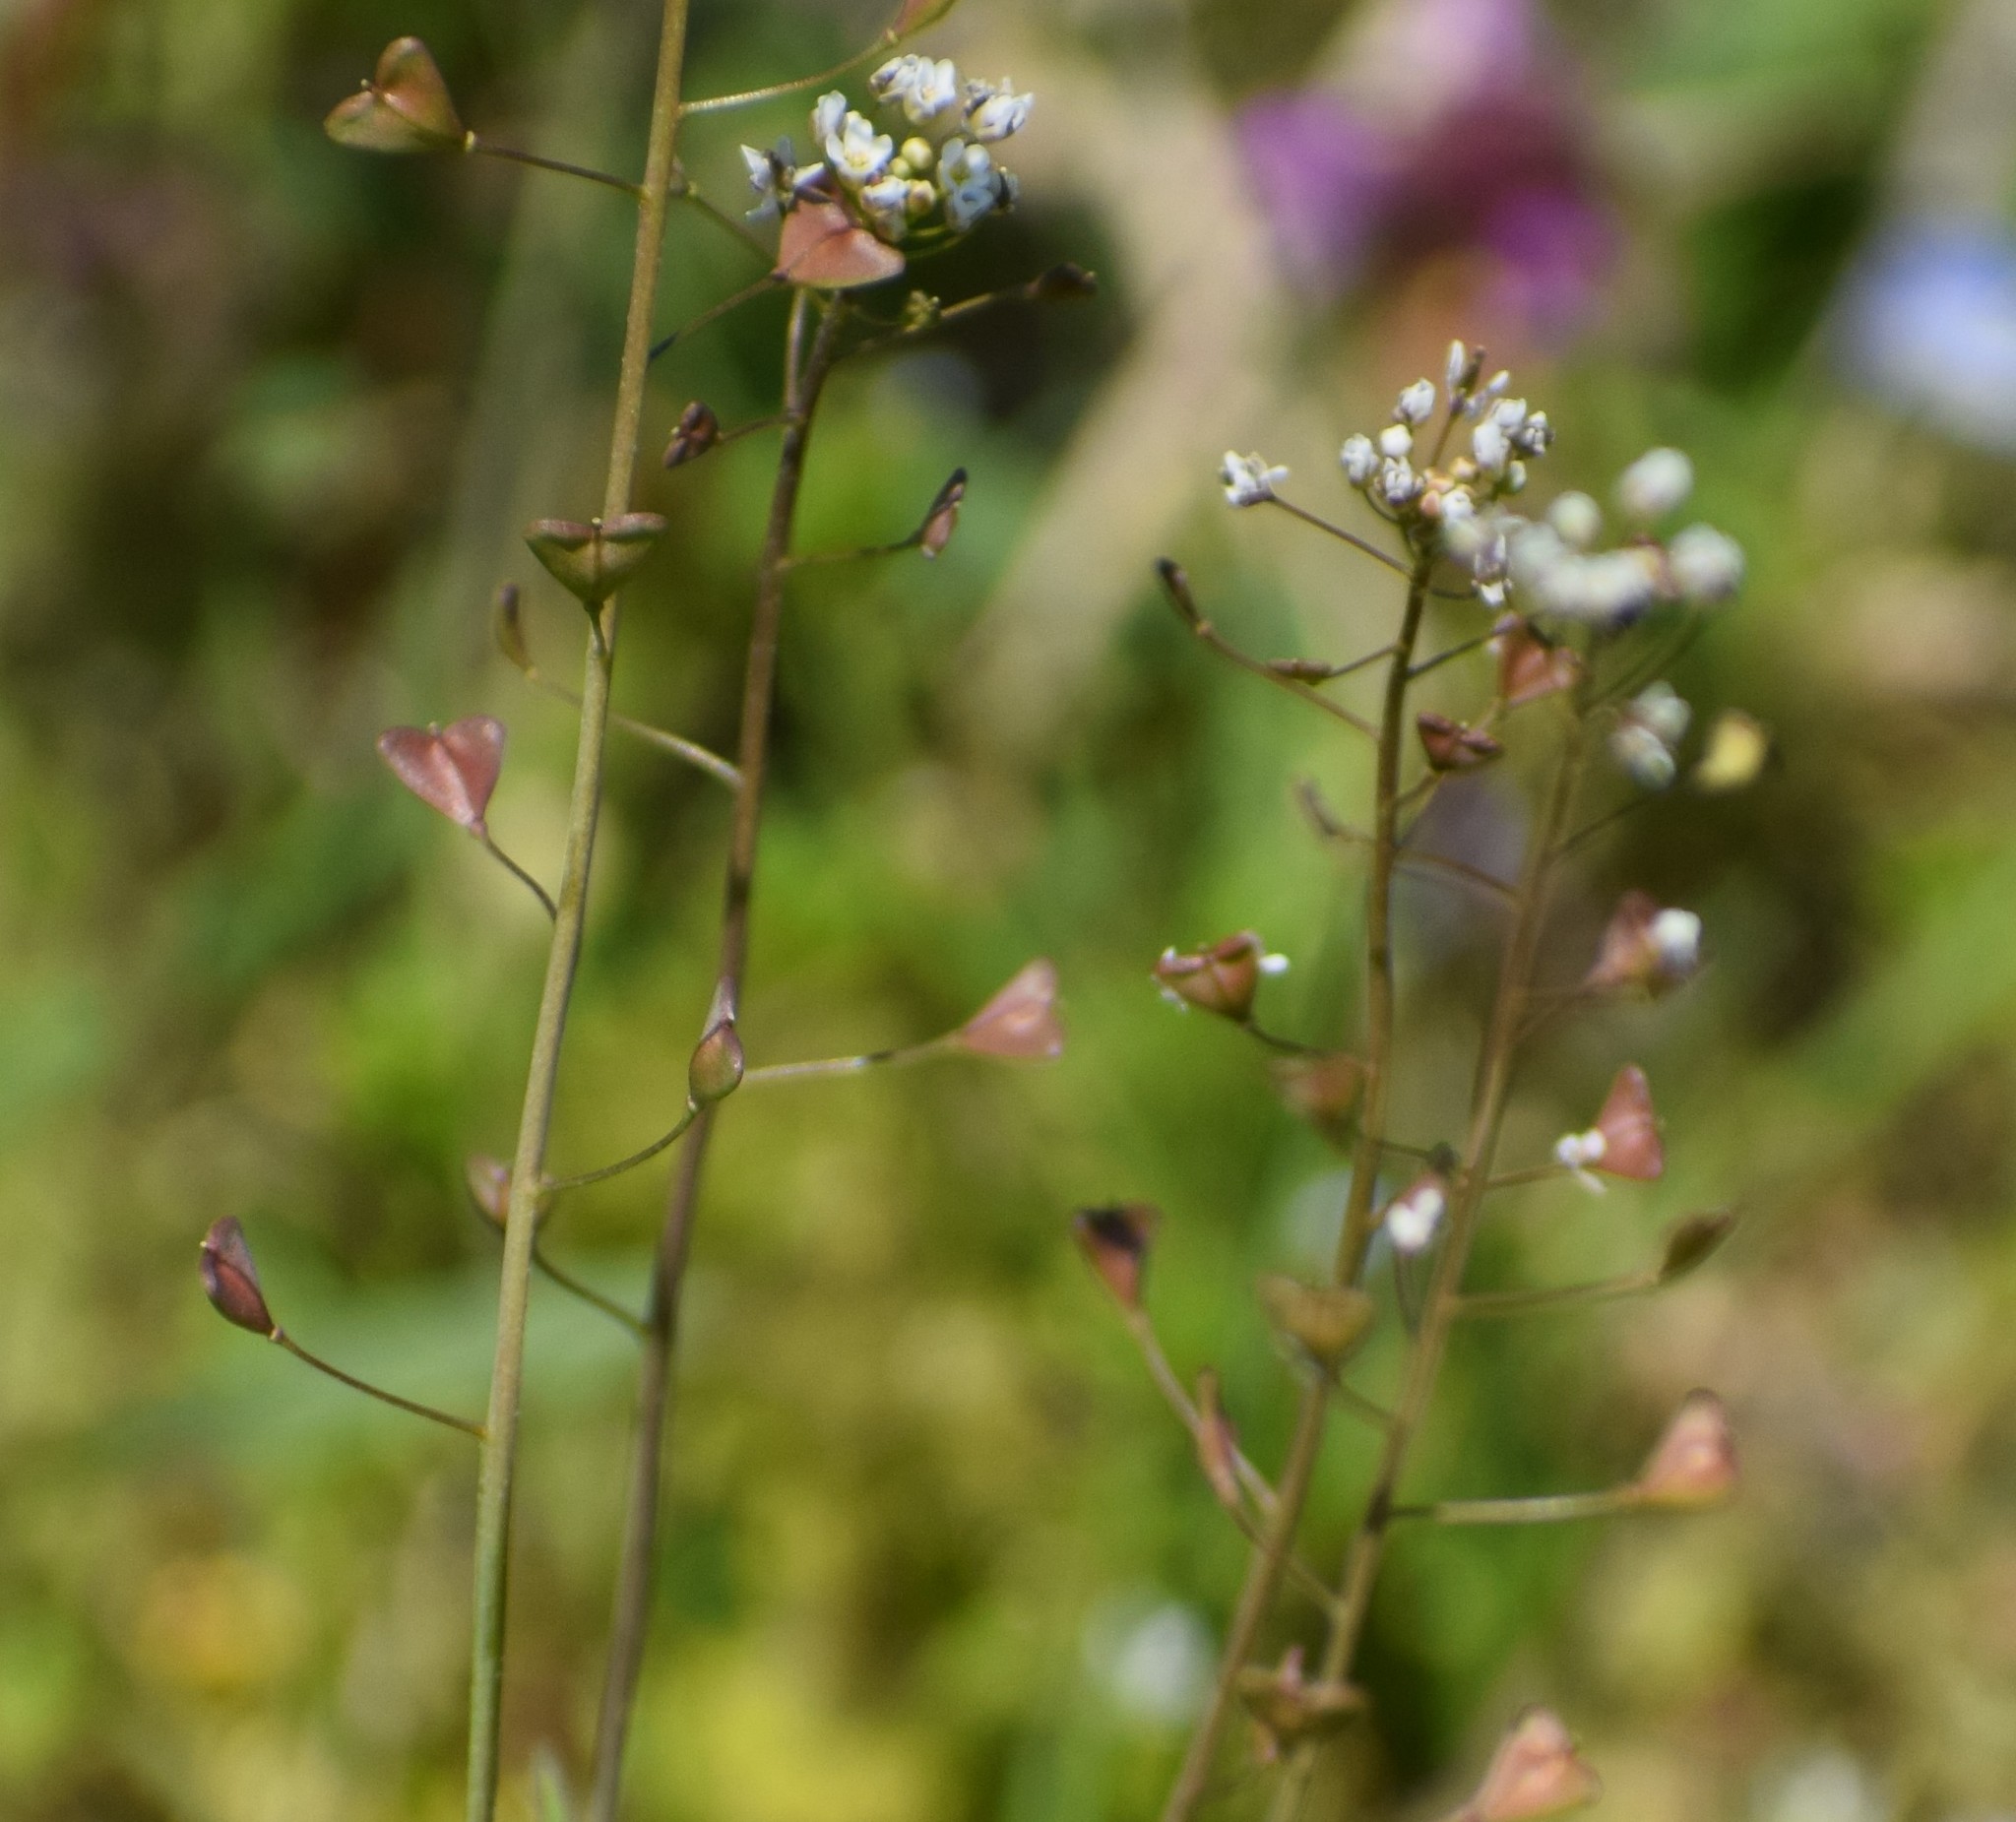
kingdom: Plantae
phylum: Tracheophyta
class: Magnoliopsida
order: Brassicales
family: Brassicaceae
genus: Capsella
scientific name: Capsella bursa-pastoris
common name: Shepherd's purse
